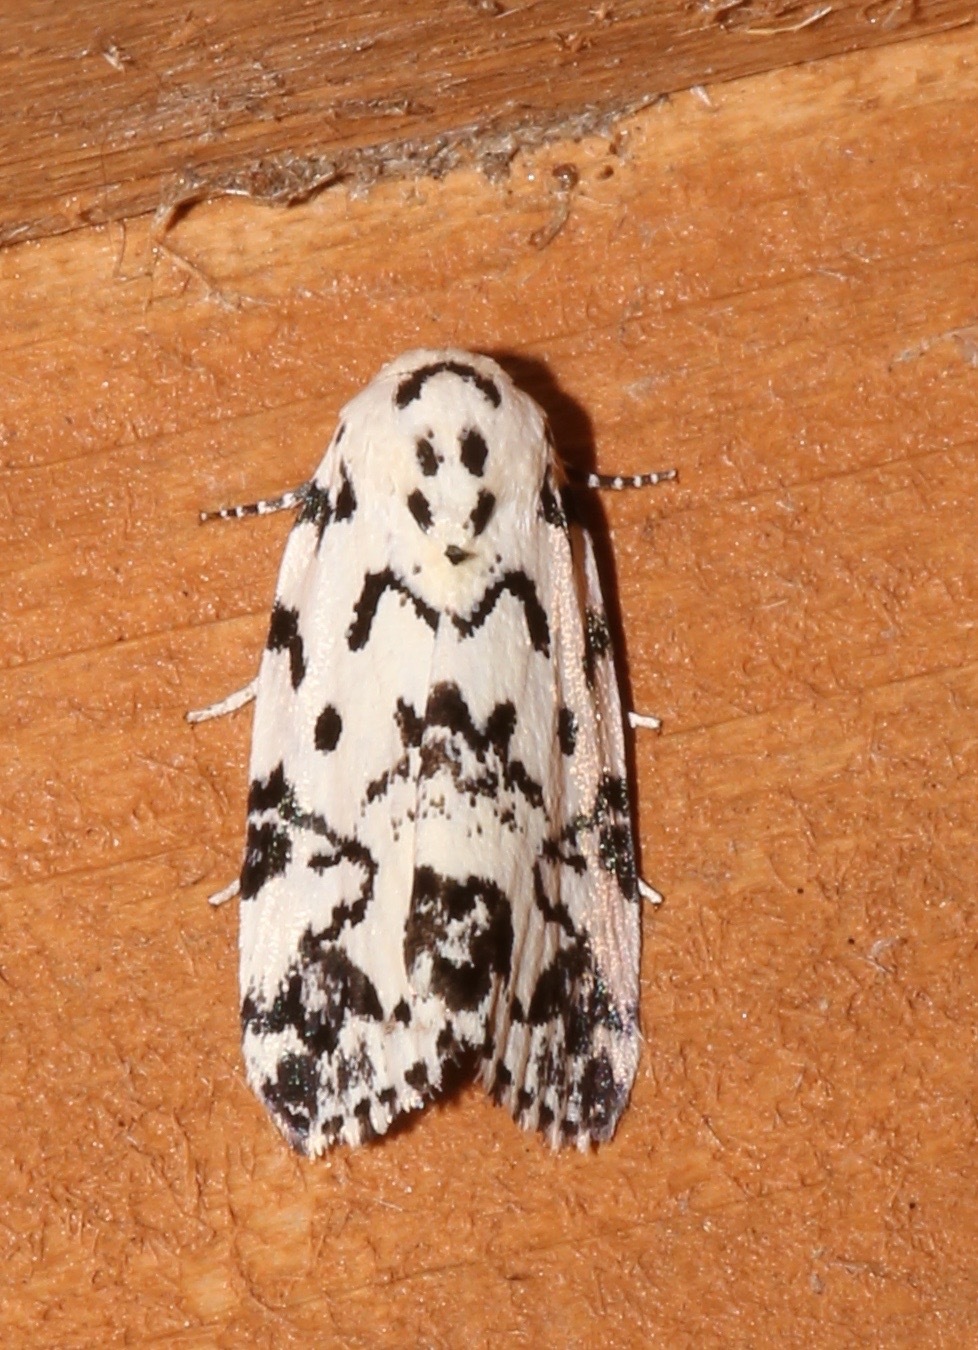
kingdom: Animalia
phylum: Arthropoda
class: Insecta
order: Lepidoptera
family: Noctuidae
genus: Polygrammate
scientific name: Polygrammate hebraeicum
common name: Hebrew moth
